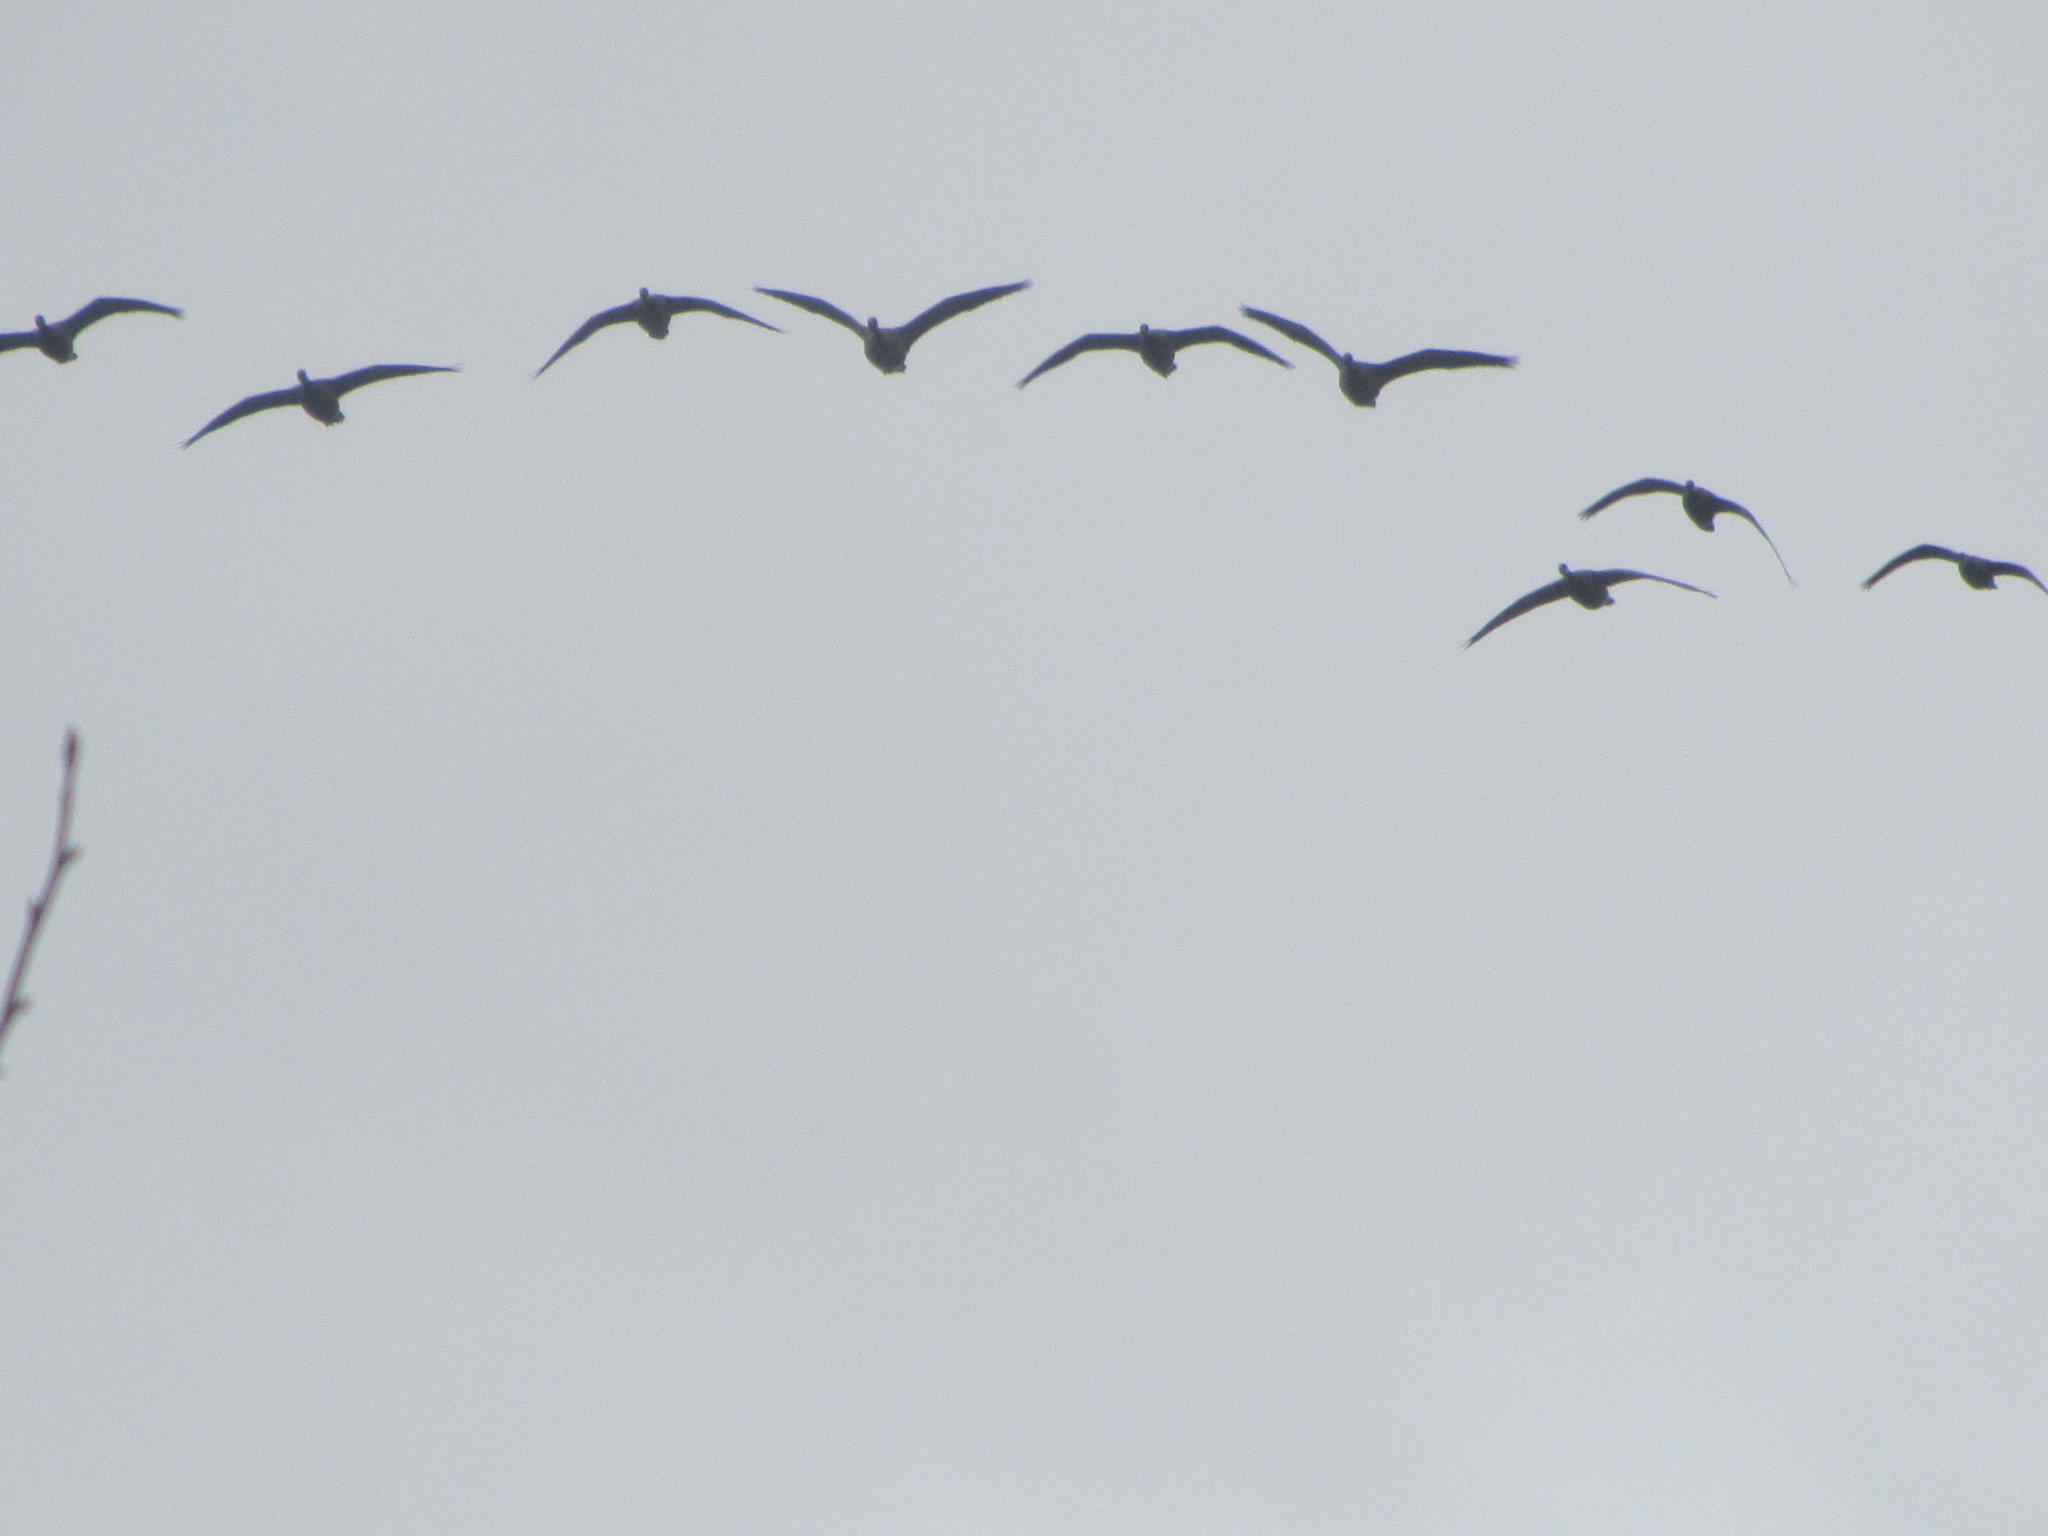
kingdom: Animalia
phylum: Chordata
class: Aves
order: Anseriformes
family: Anatidae
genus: Branta
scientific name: Branta canadensis
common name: Canada goose
